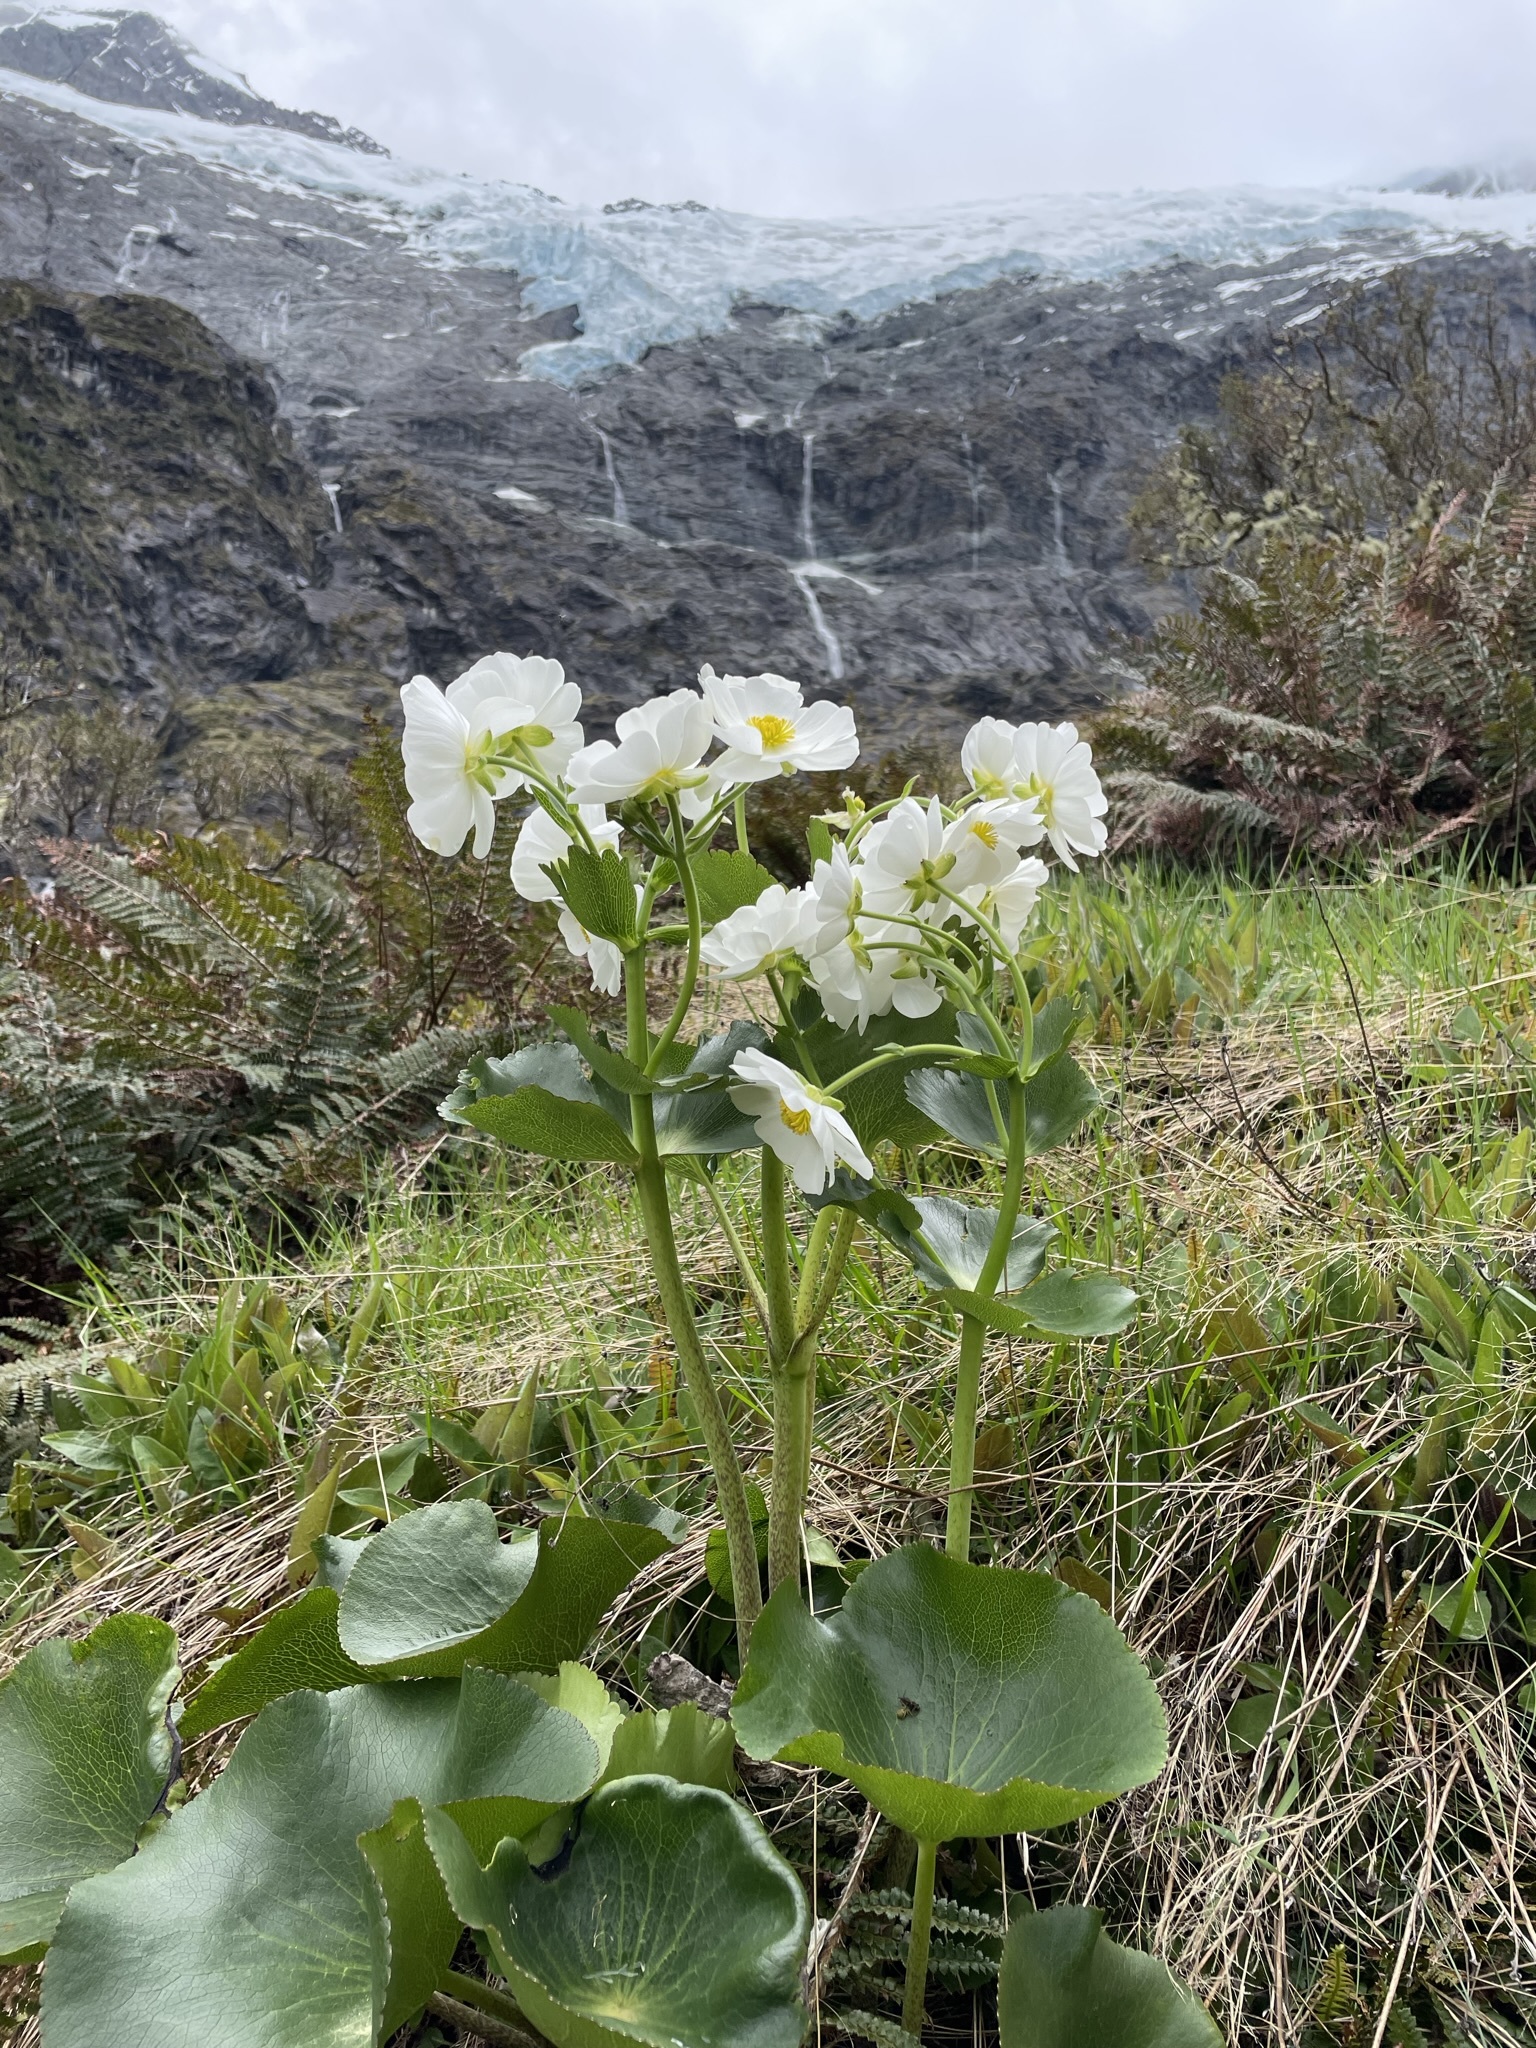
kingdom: Plantae
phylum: Tracheophyta
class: Magnoliopsida
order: Ranunculales
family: Ranunculaceae
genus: Ranunculus
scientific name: Ranunculus lyallii
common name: Mountain-lily
